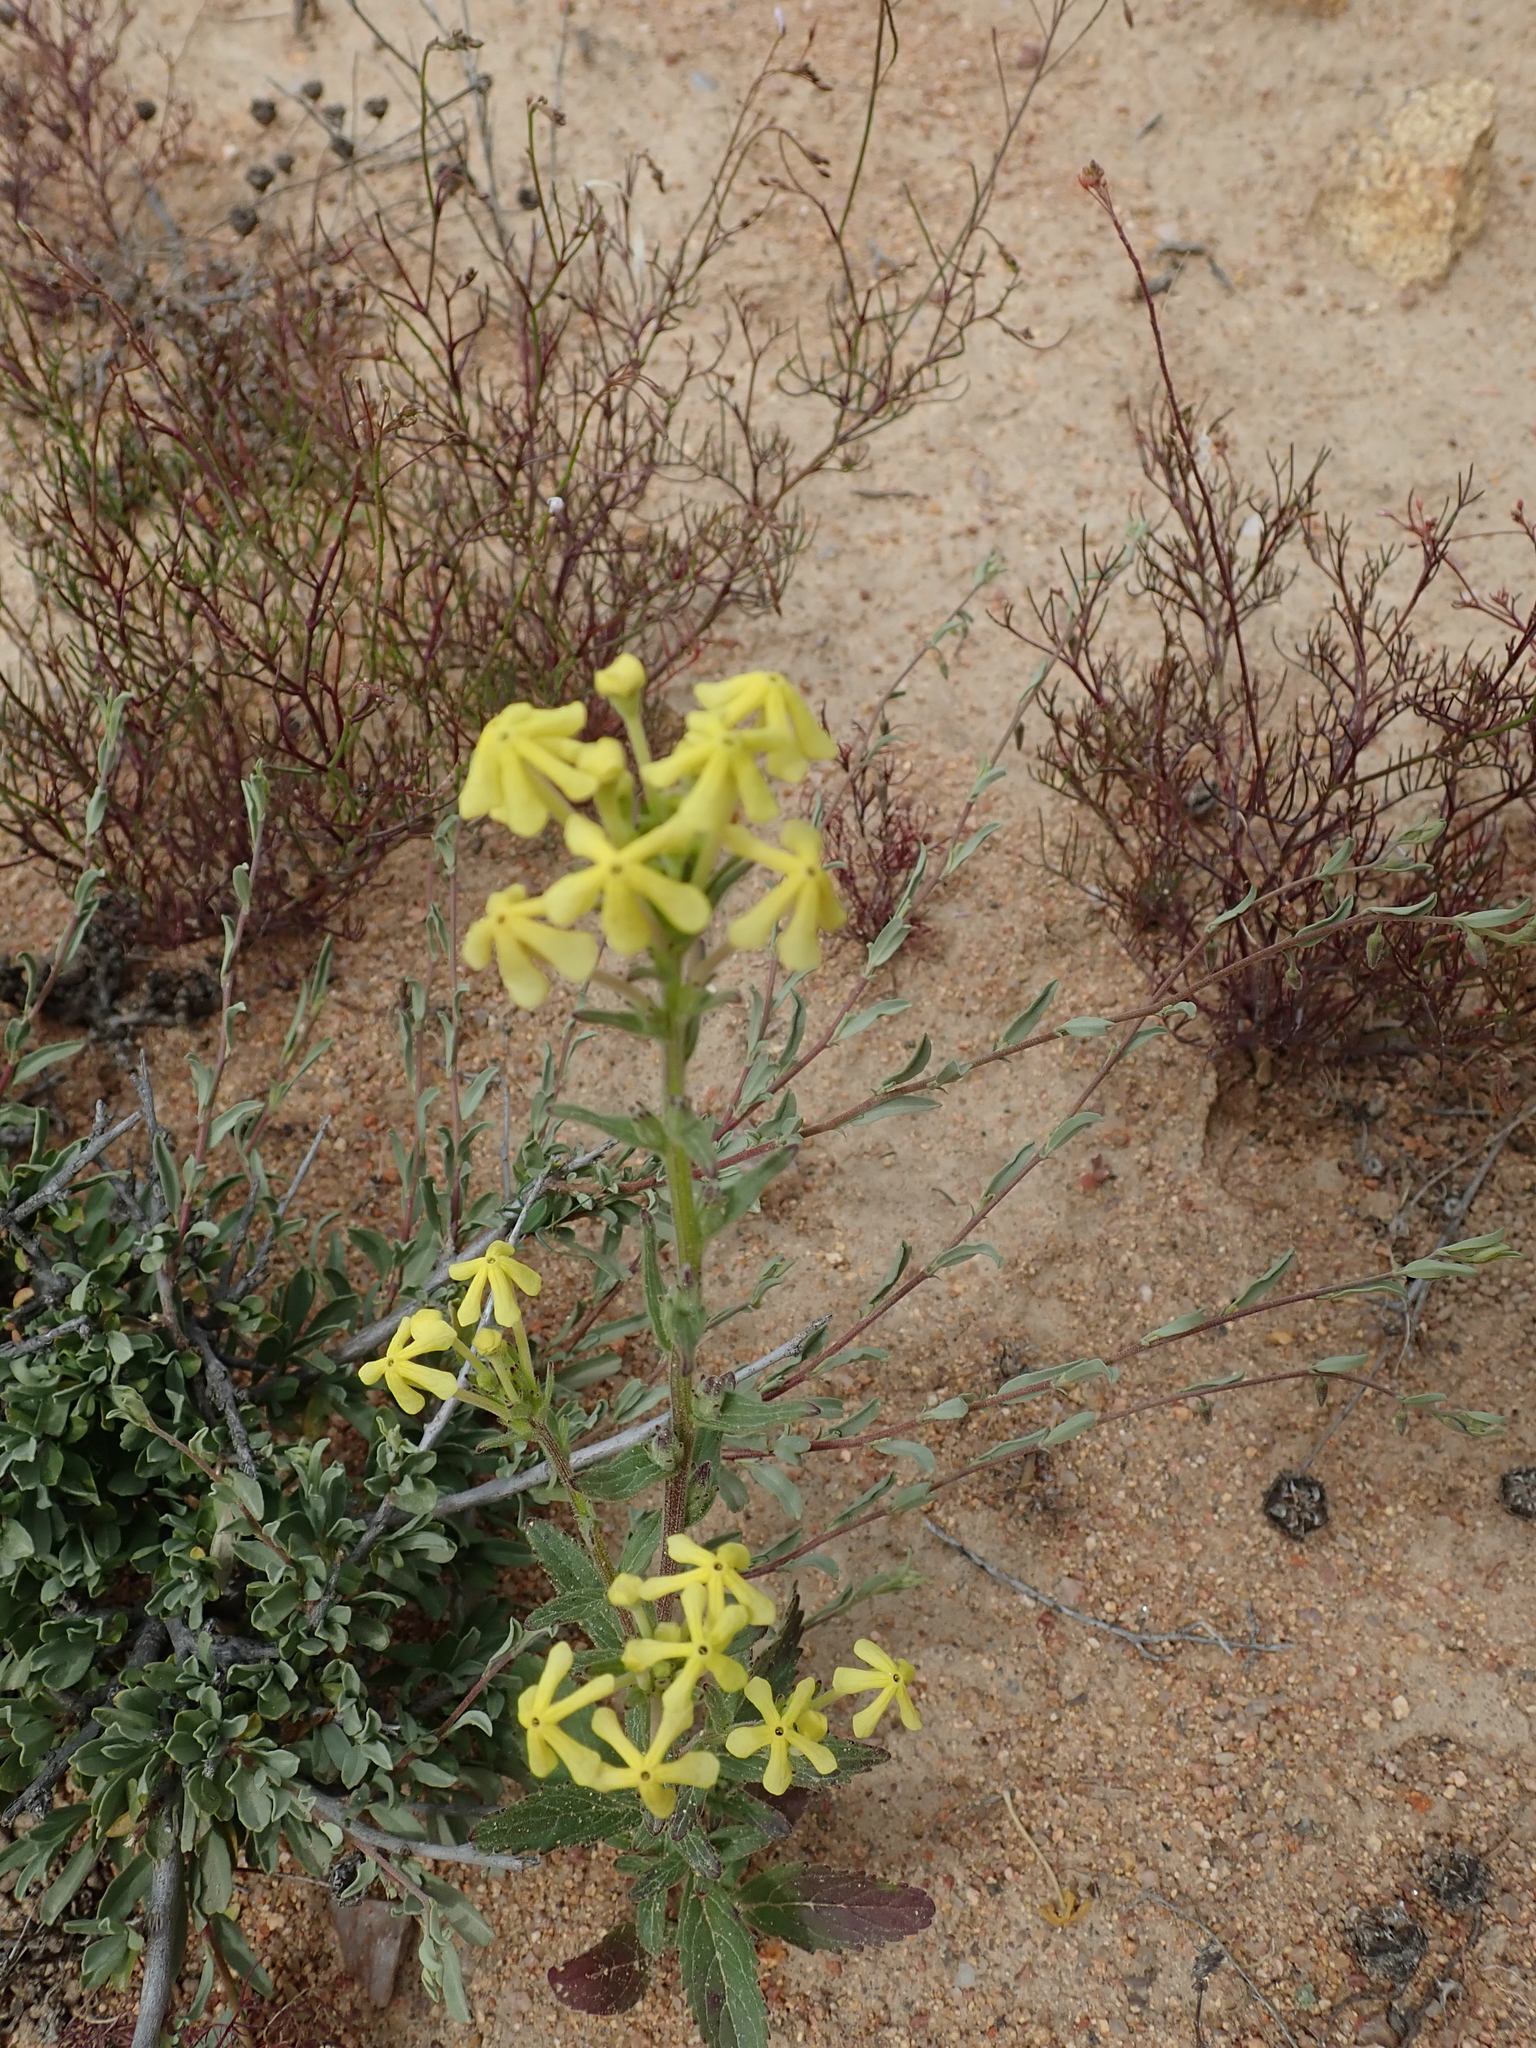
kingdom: Plantae
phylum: Tracheophyta
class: Magnoliopsida
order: Lamiales
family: Scrophulariaceae
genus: Lyperia
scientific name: Lyperia tristis
